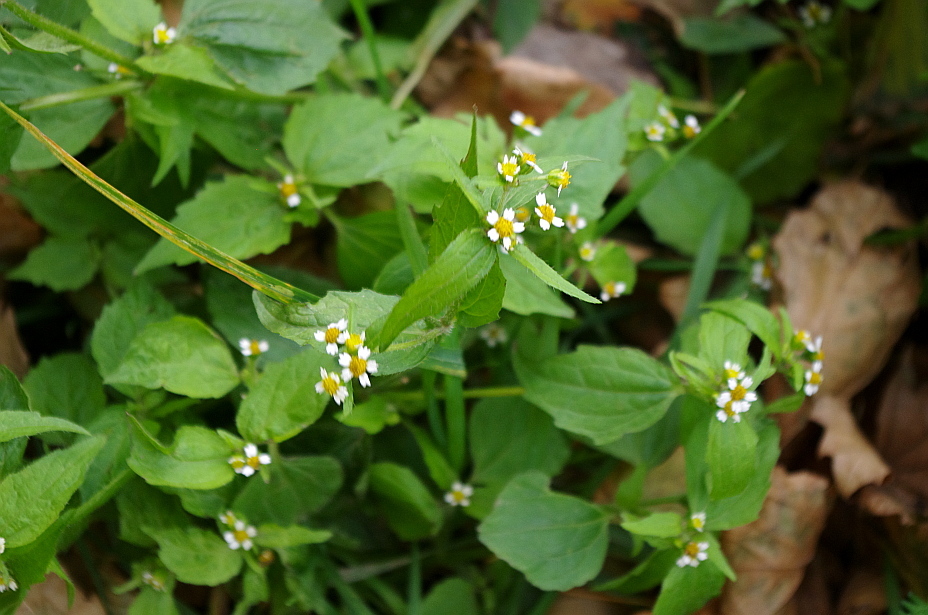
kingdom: Plantae
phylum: Tracheophyta
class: Magnoliopsida
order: Asterales
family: Asteraceae
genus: Galinsoga
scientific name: Galinsoga quadriradiata
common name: Shaggy soldier
